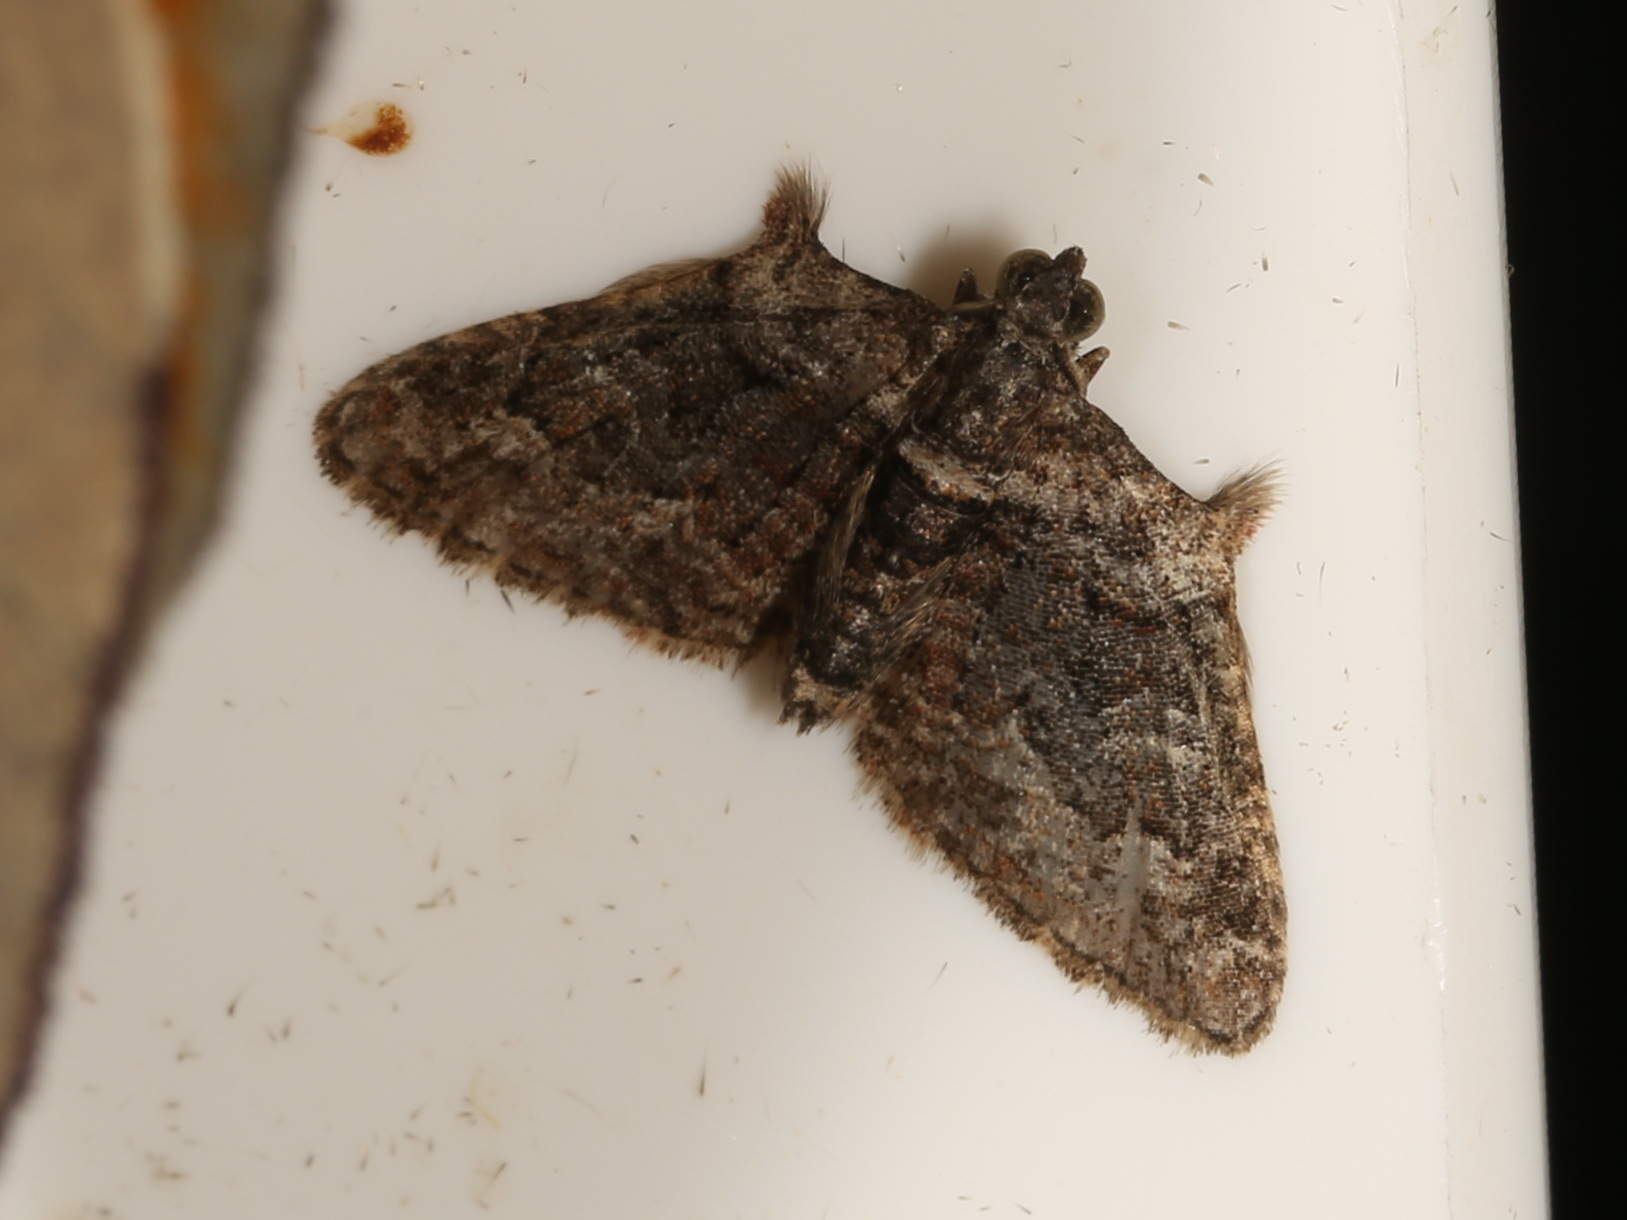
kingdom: Animalia
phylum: Arthropoda
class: Insecta
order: Lepidoptera
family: Geometridae
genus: Phrissogonus
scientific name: Phrissogonus laticostata
